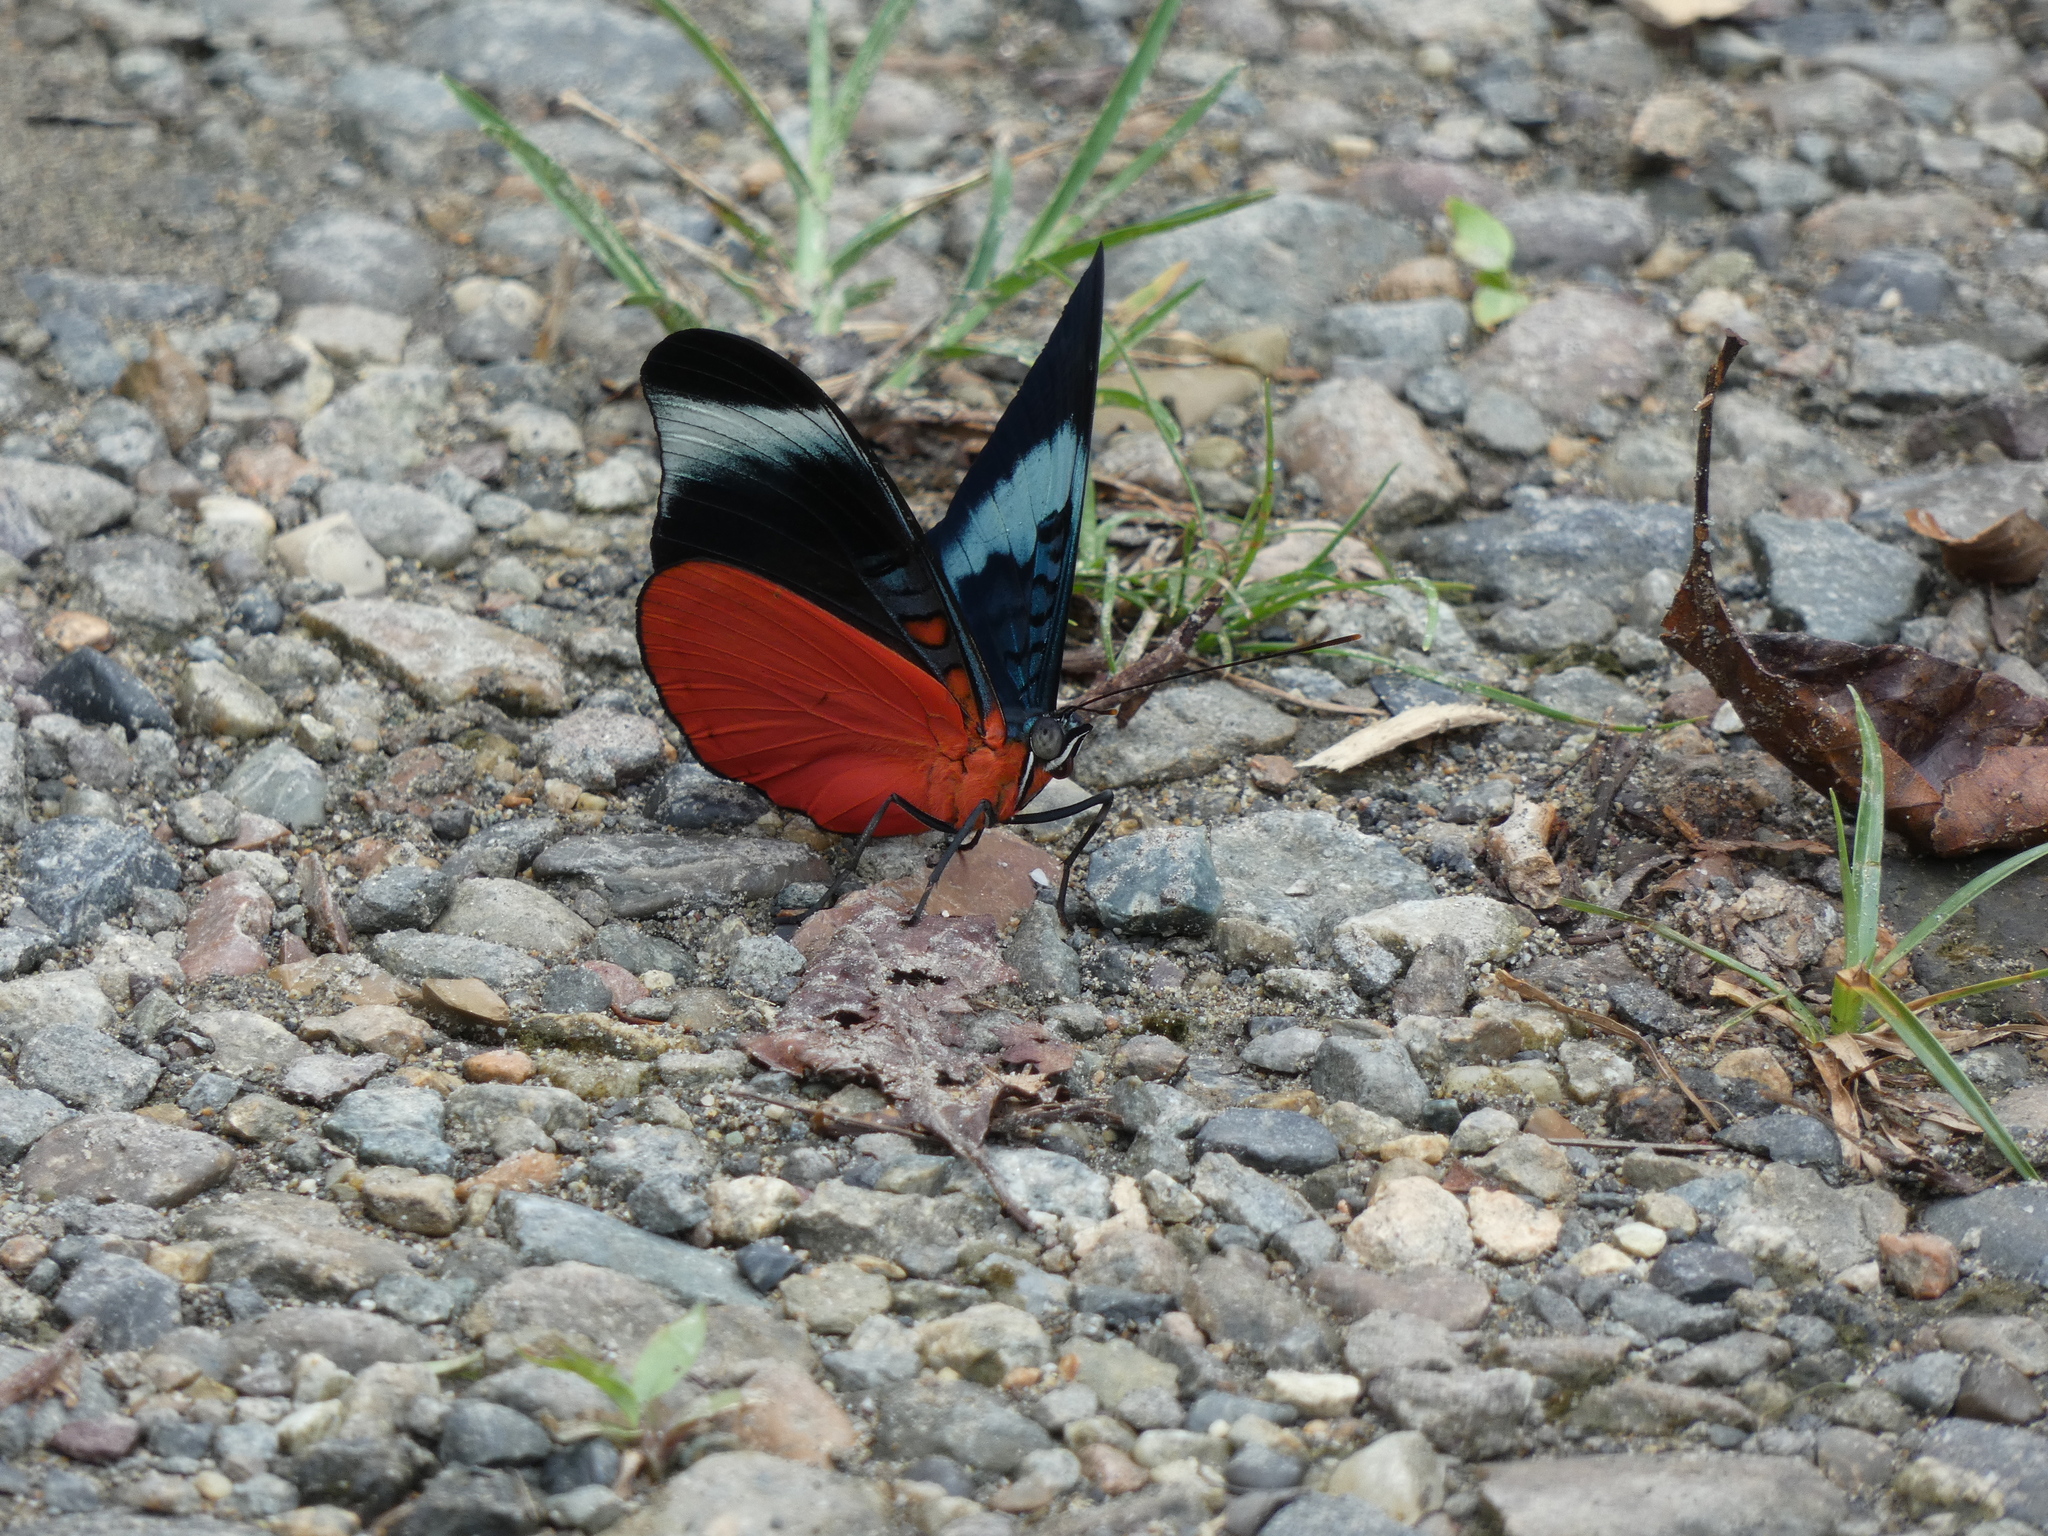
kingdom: Animalia
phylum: Arthropoda
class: Insecta
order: Lepidoptera
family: Nymphalidae
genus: Panacea
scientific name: Panacea prola
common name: Red flasher
